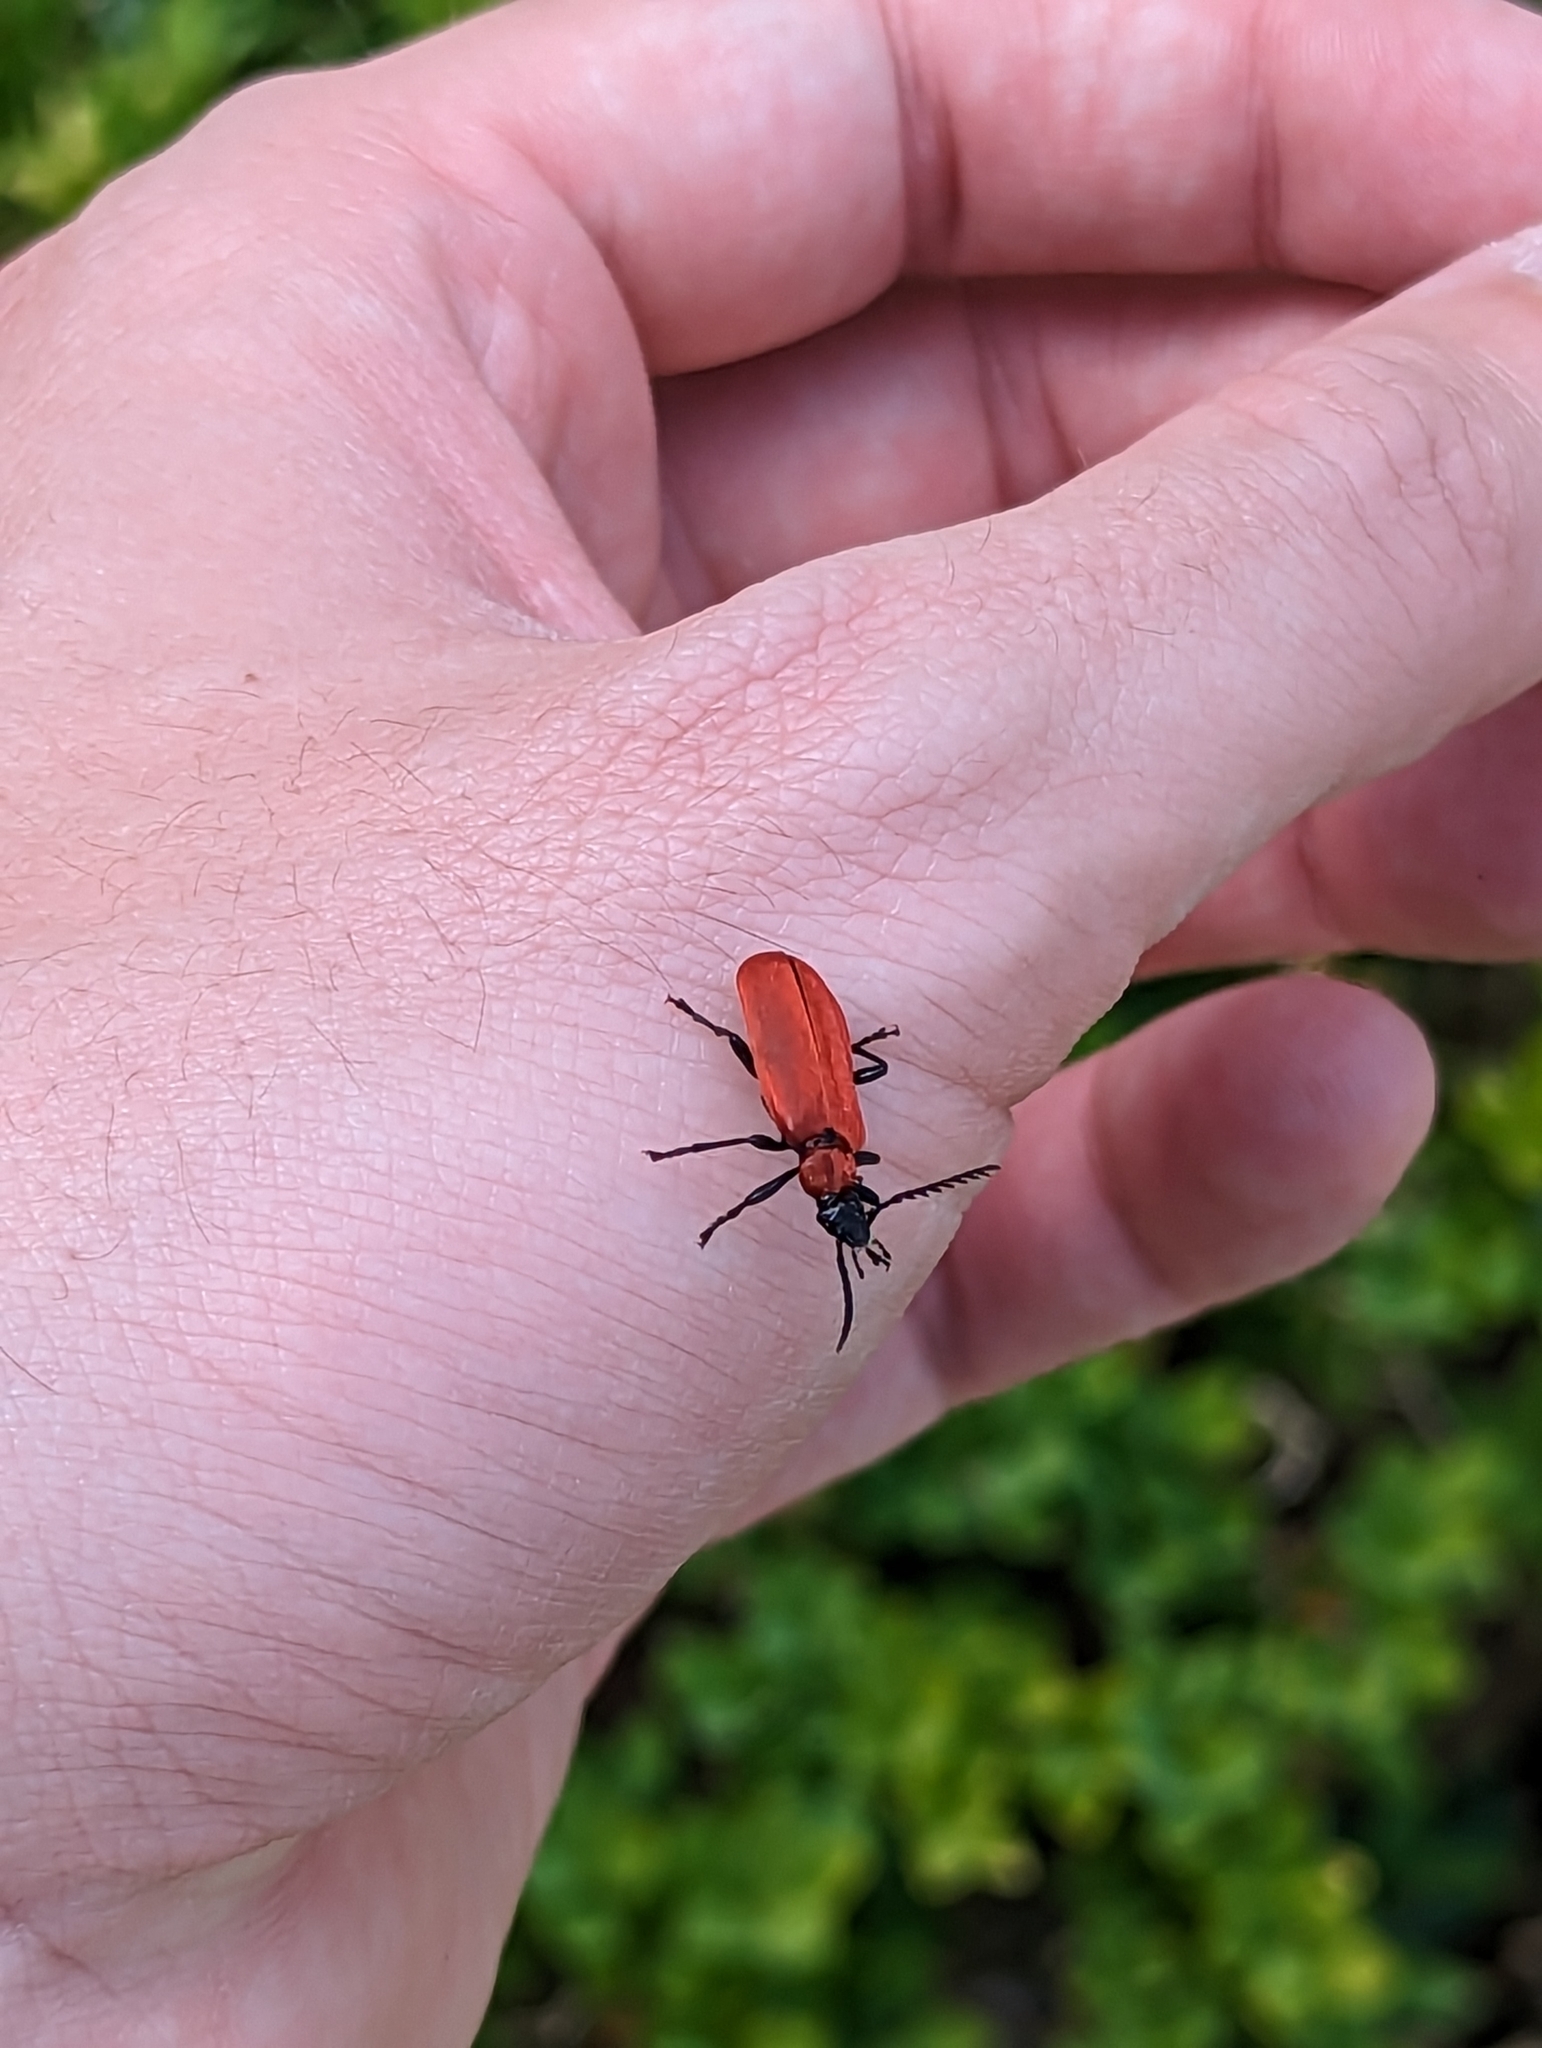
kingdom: Animalia
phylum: Arthropoda
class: Insecta
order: Coleoptera
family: Pyrochroidae
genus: Pyrochroa
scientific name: Pyrochroa coccinea
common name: Black-headed cardinal beetle
